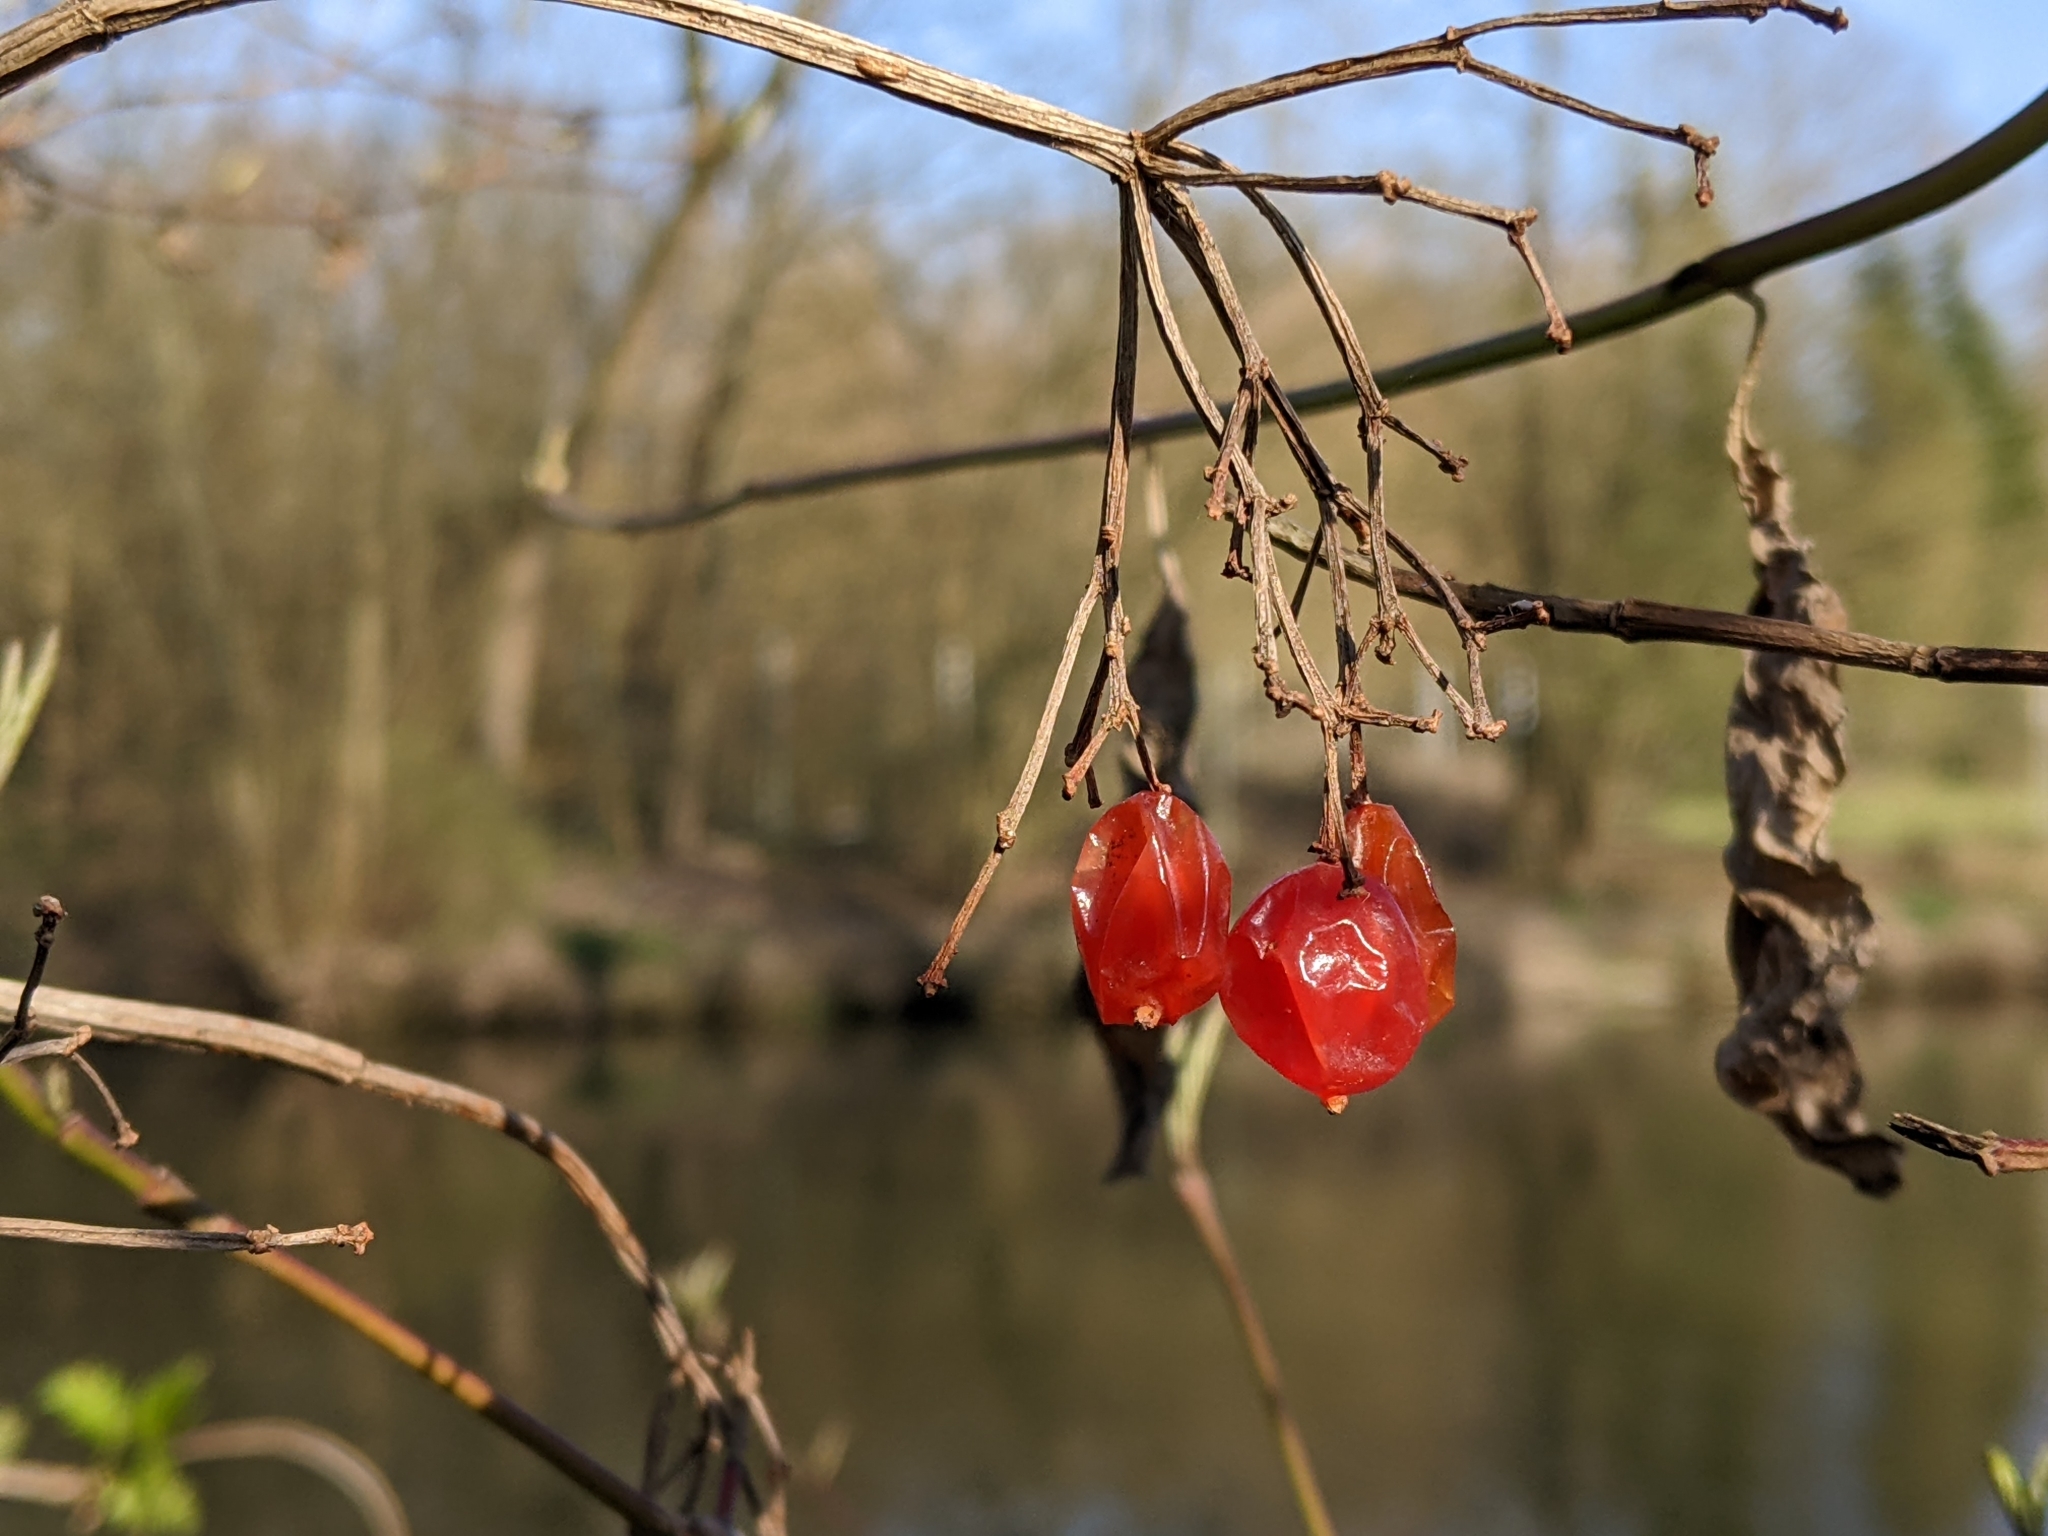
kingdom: Plantae
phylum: Tracheophyta
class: Magnoliopsida
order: Dipsacales
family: Viburnaceae
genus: Viburnum
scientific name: Viburnum opulus
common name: Guelder-rose
